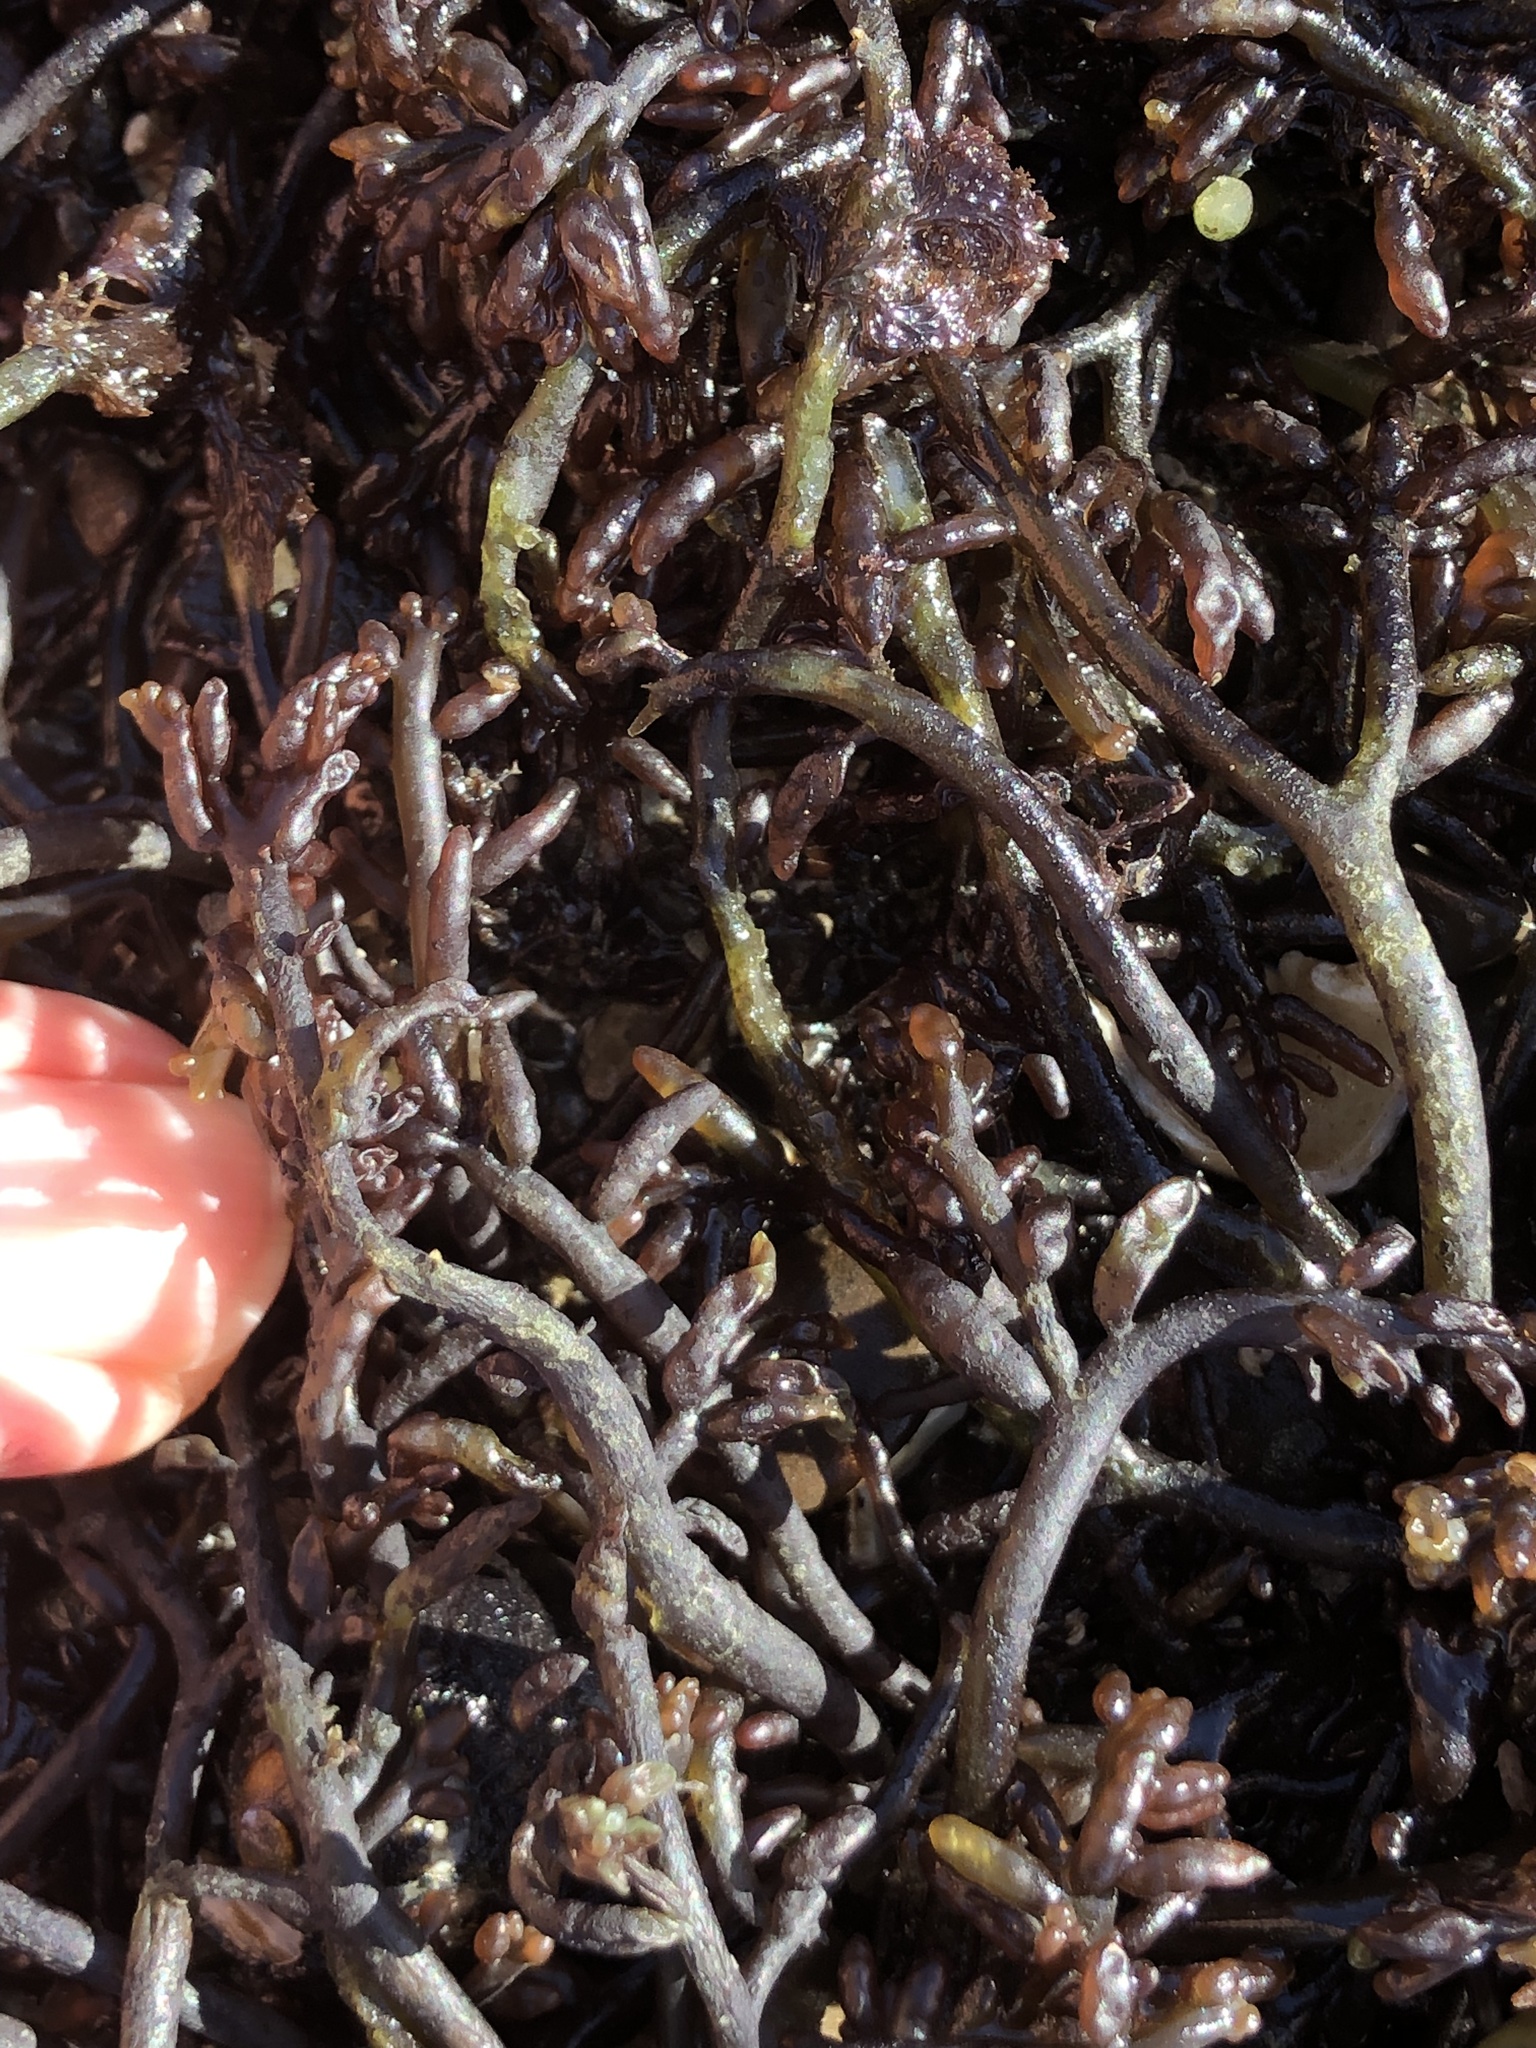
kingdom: Plantae
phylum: Rhodophyta
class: Florideophyceae
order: Rhodymeniales
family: Champiaceae
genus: Neogastroclonium
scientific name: Neogastroclonium subarticulatum
